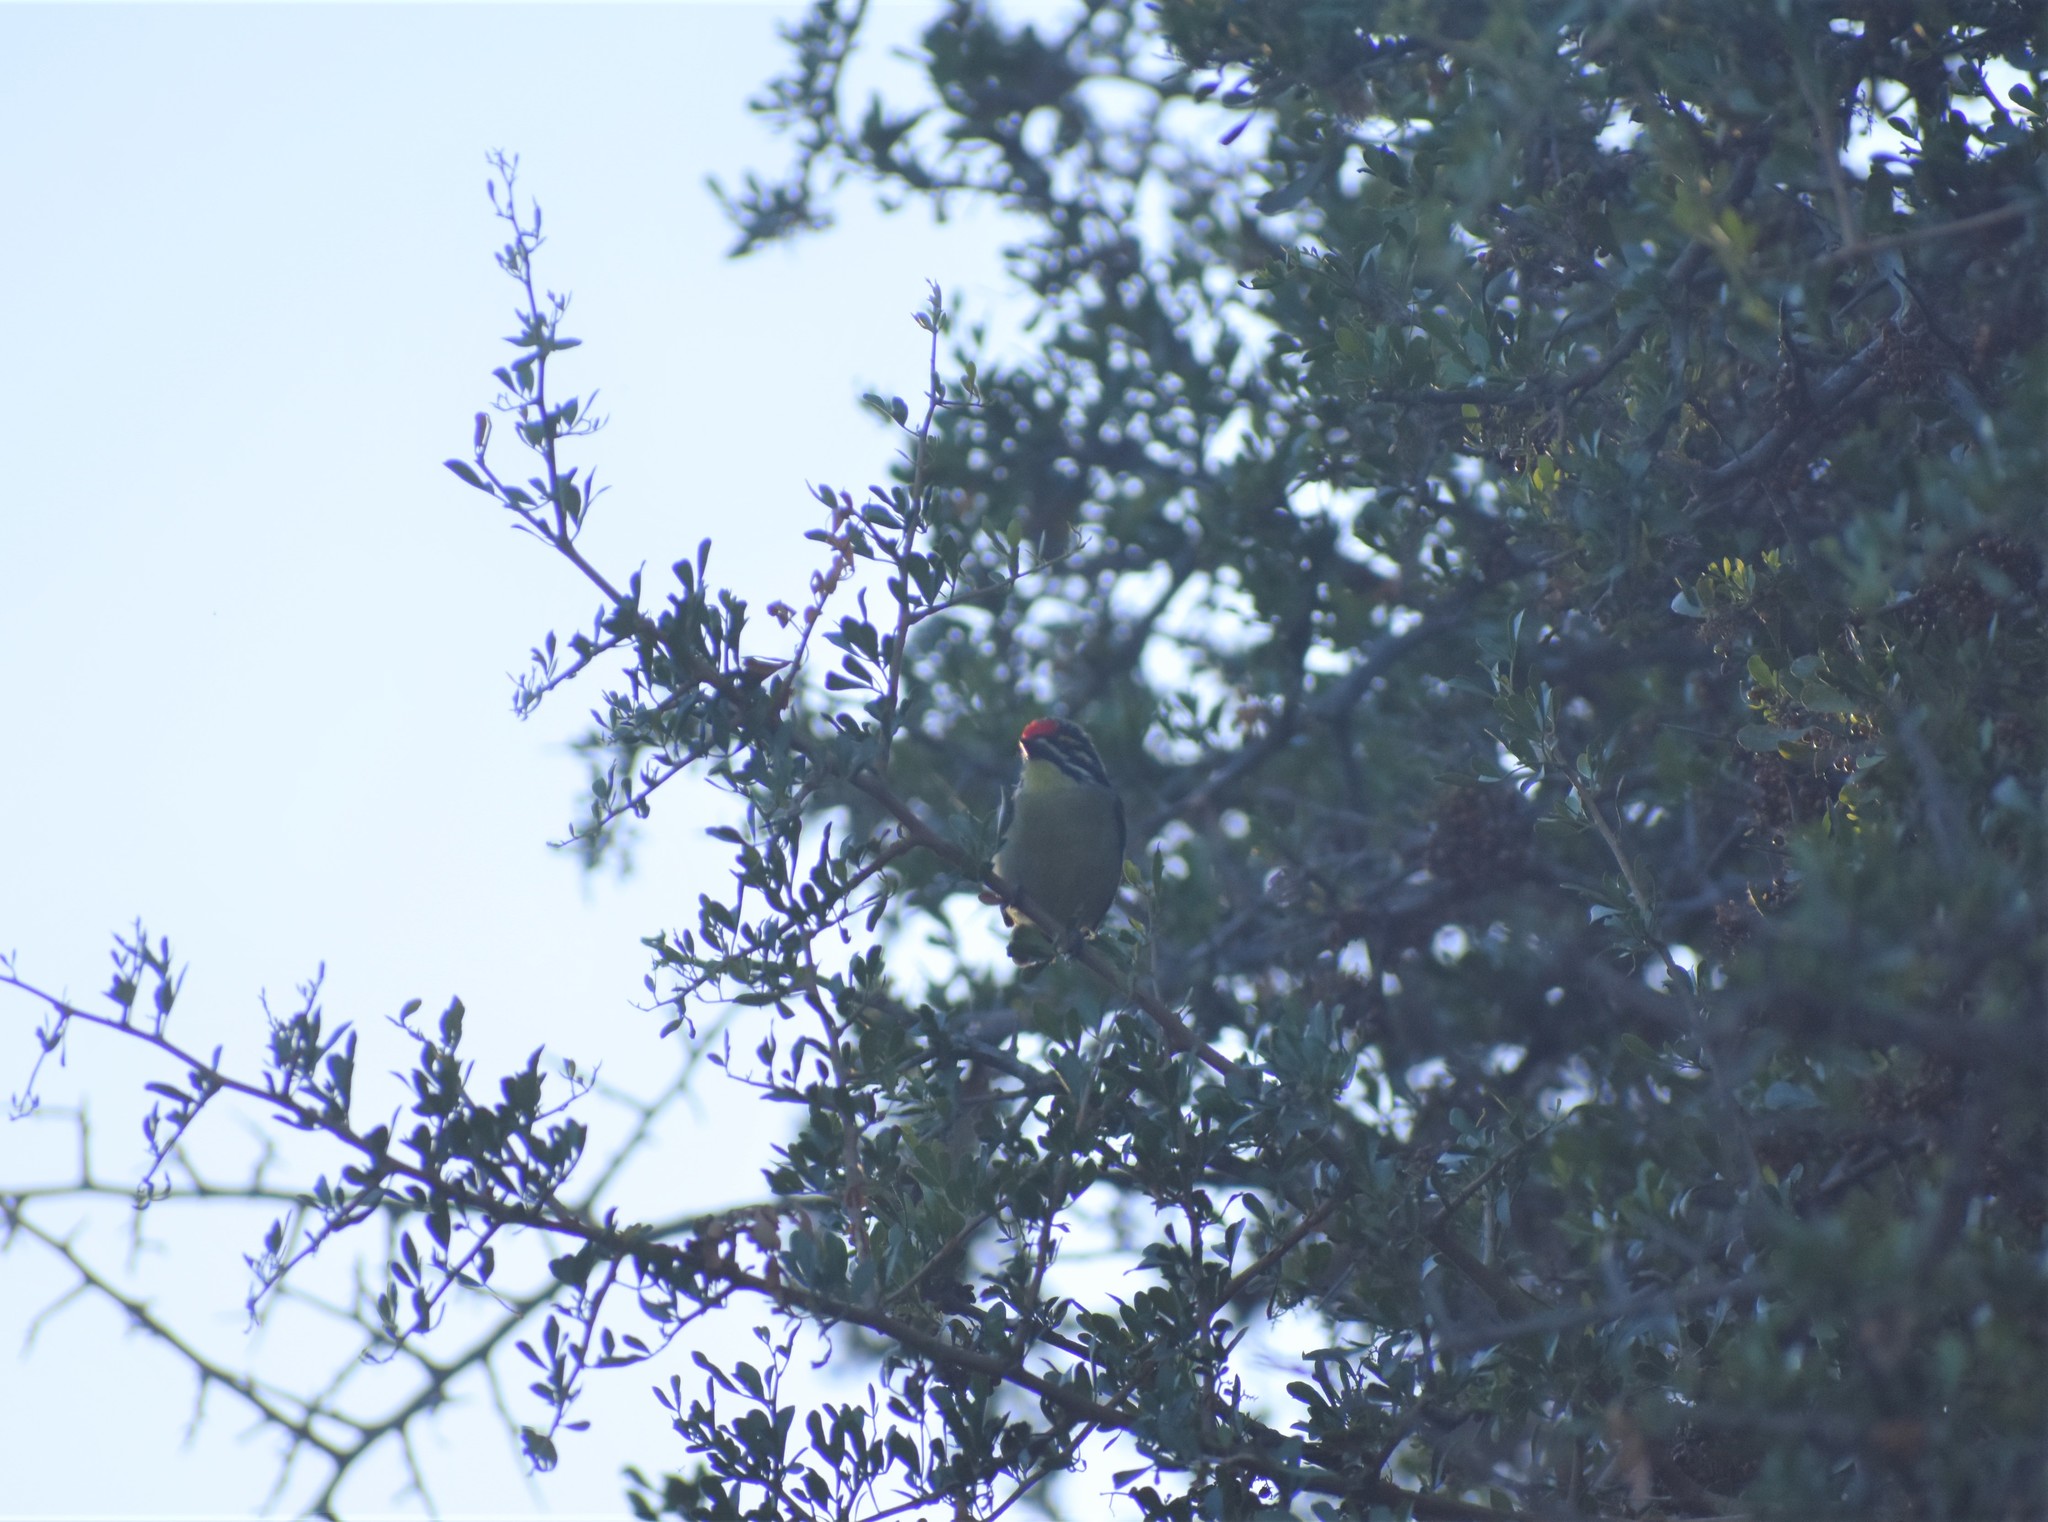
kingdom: Animalia
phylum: Chordata
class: Aves
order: Piciformes
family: Lybiidae
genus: Pogoniulus
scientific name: Pogoniulus pusillus
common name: Red-fronted tinkerbird
